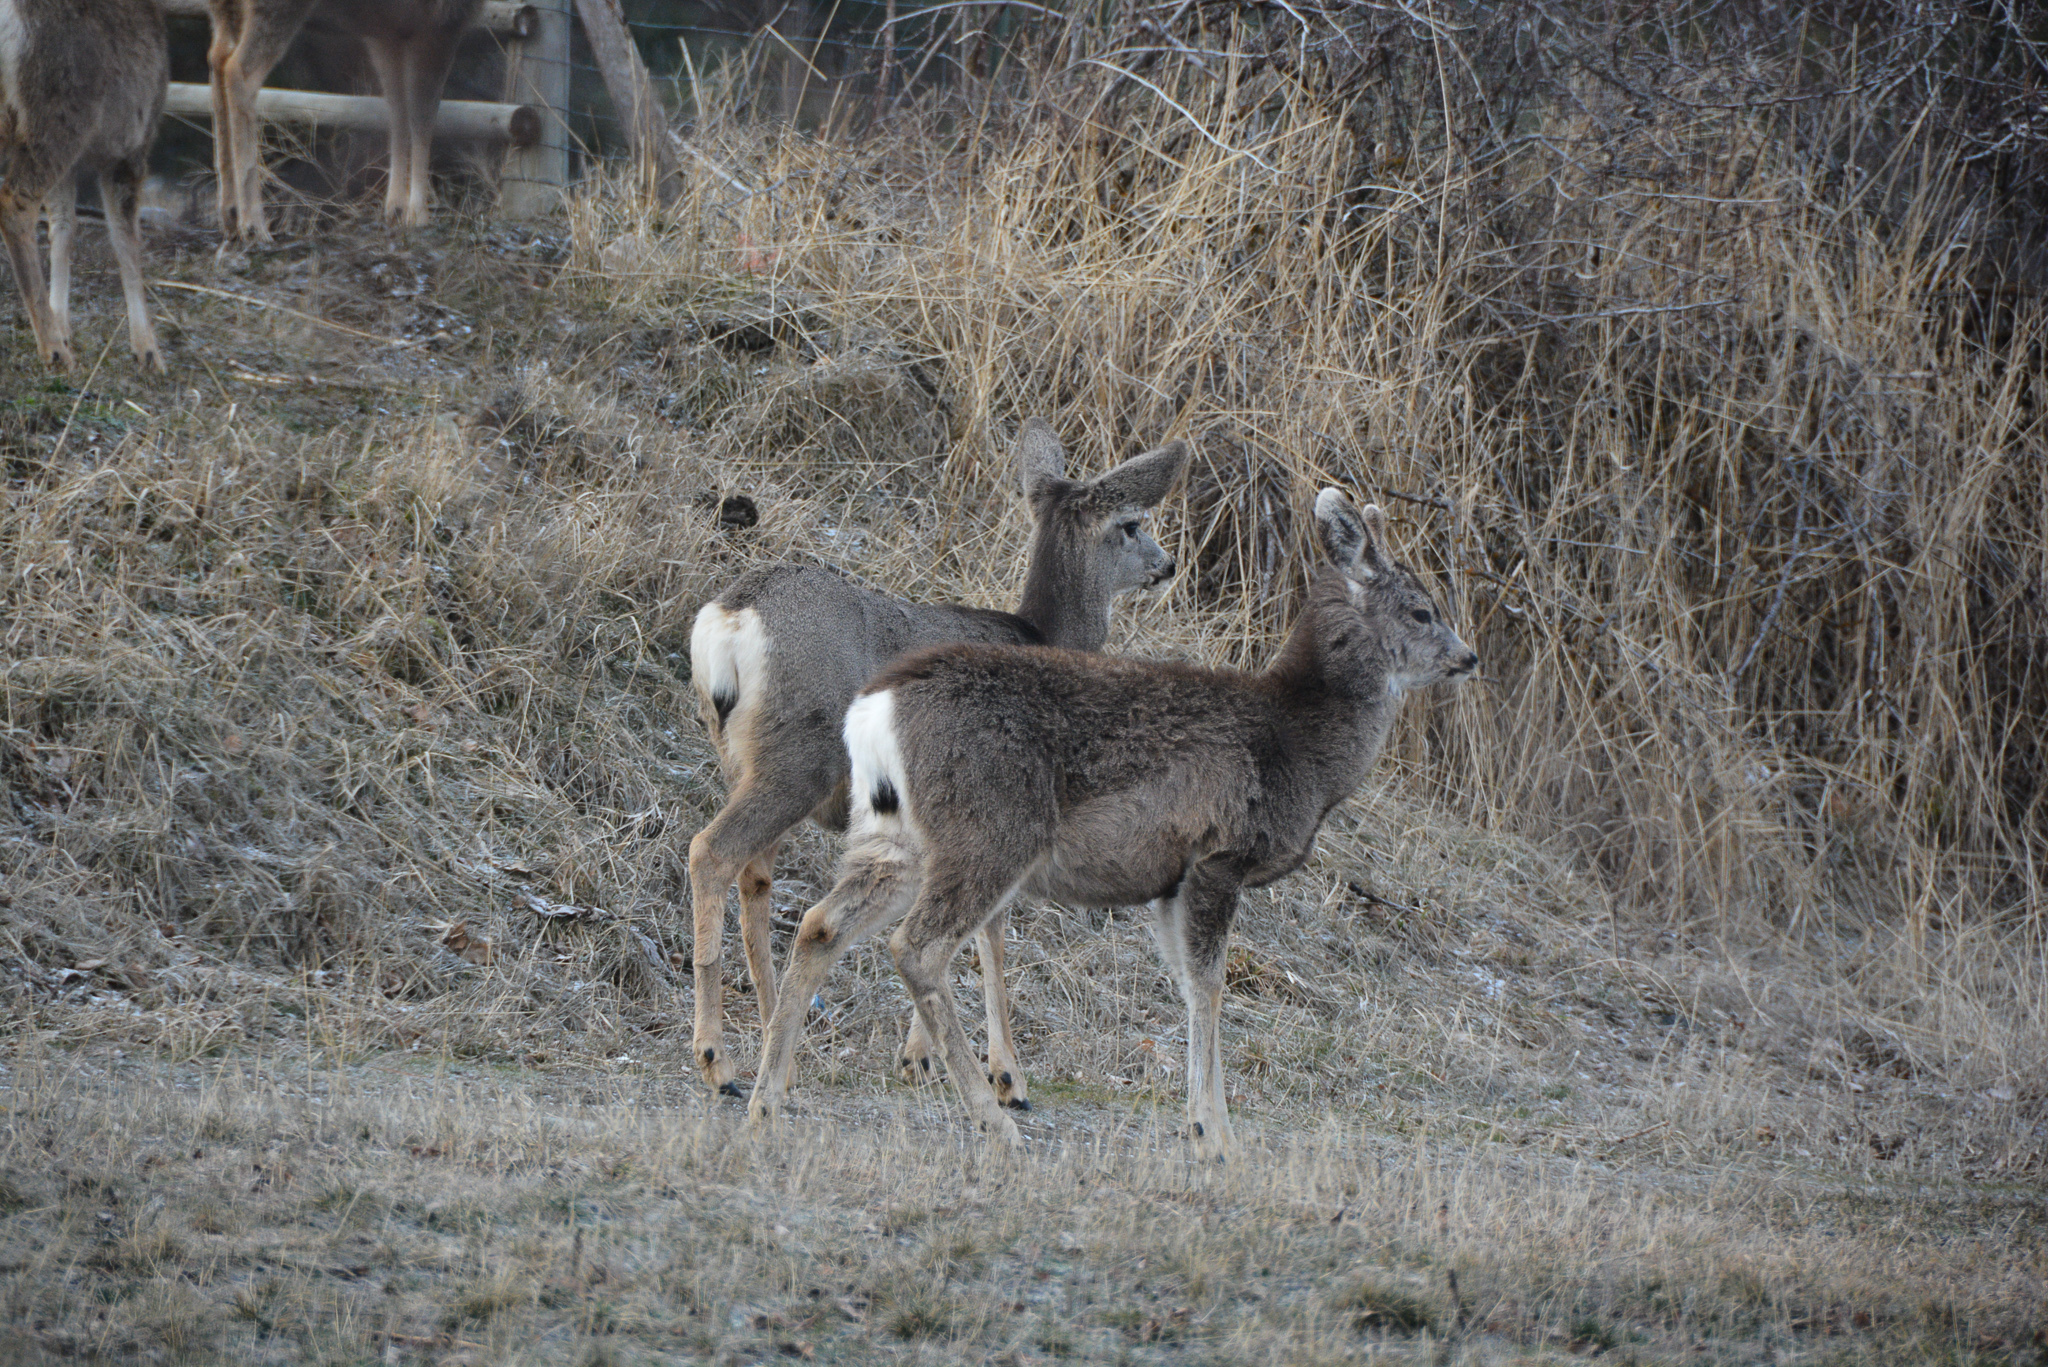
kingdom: Animalia
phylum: Chordata
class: Mammalia
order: Artiodactyla
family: Cervidae
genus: Odocoileus
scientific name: Odocoileus hemionus
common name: Mule deer
